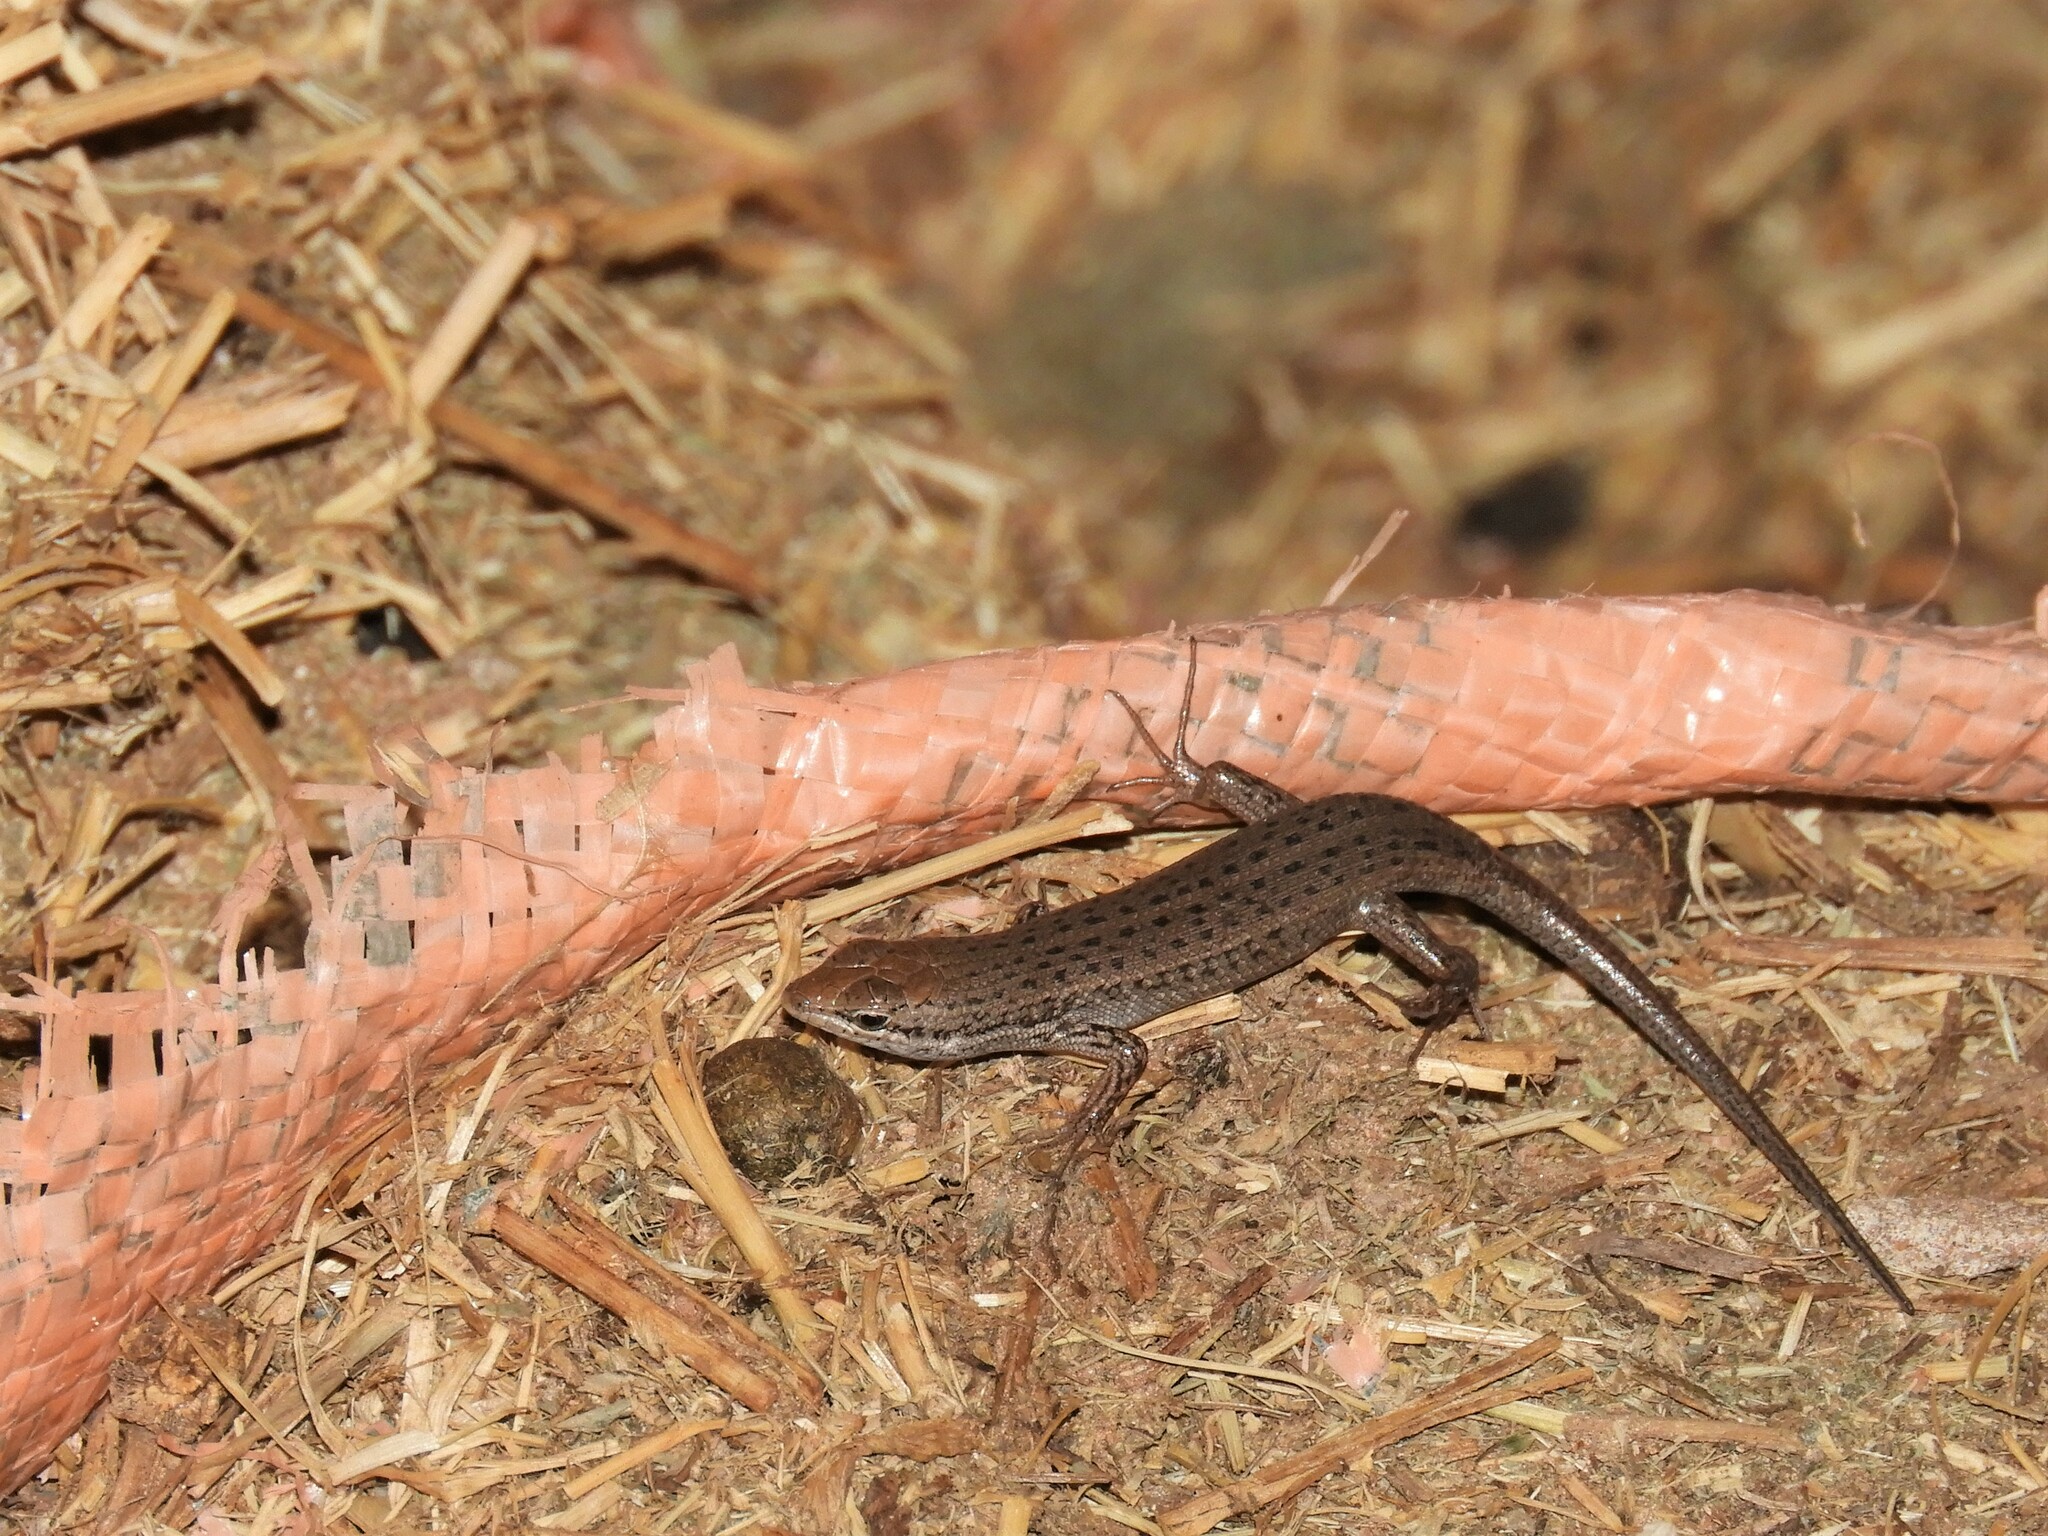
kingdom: Animalia
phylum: Chordata
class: Squamata
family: Scincidae
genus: Trachylepis
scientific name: Trachylepis variegata
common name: Variegated skink
